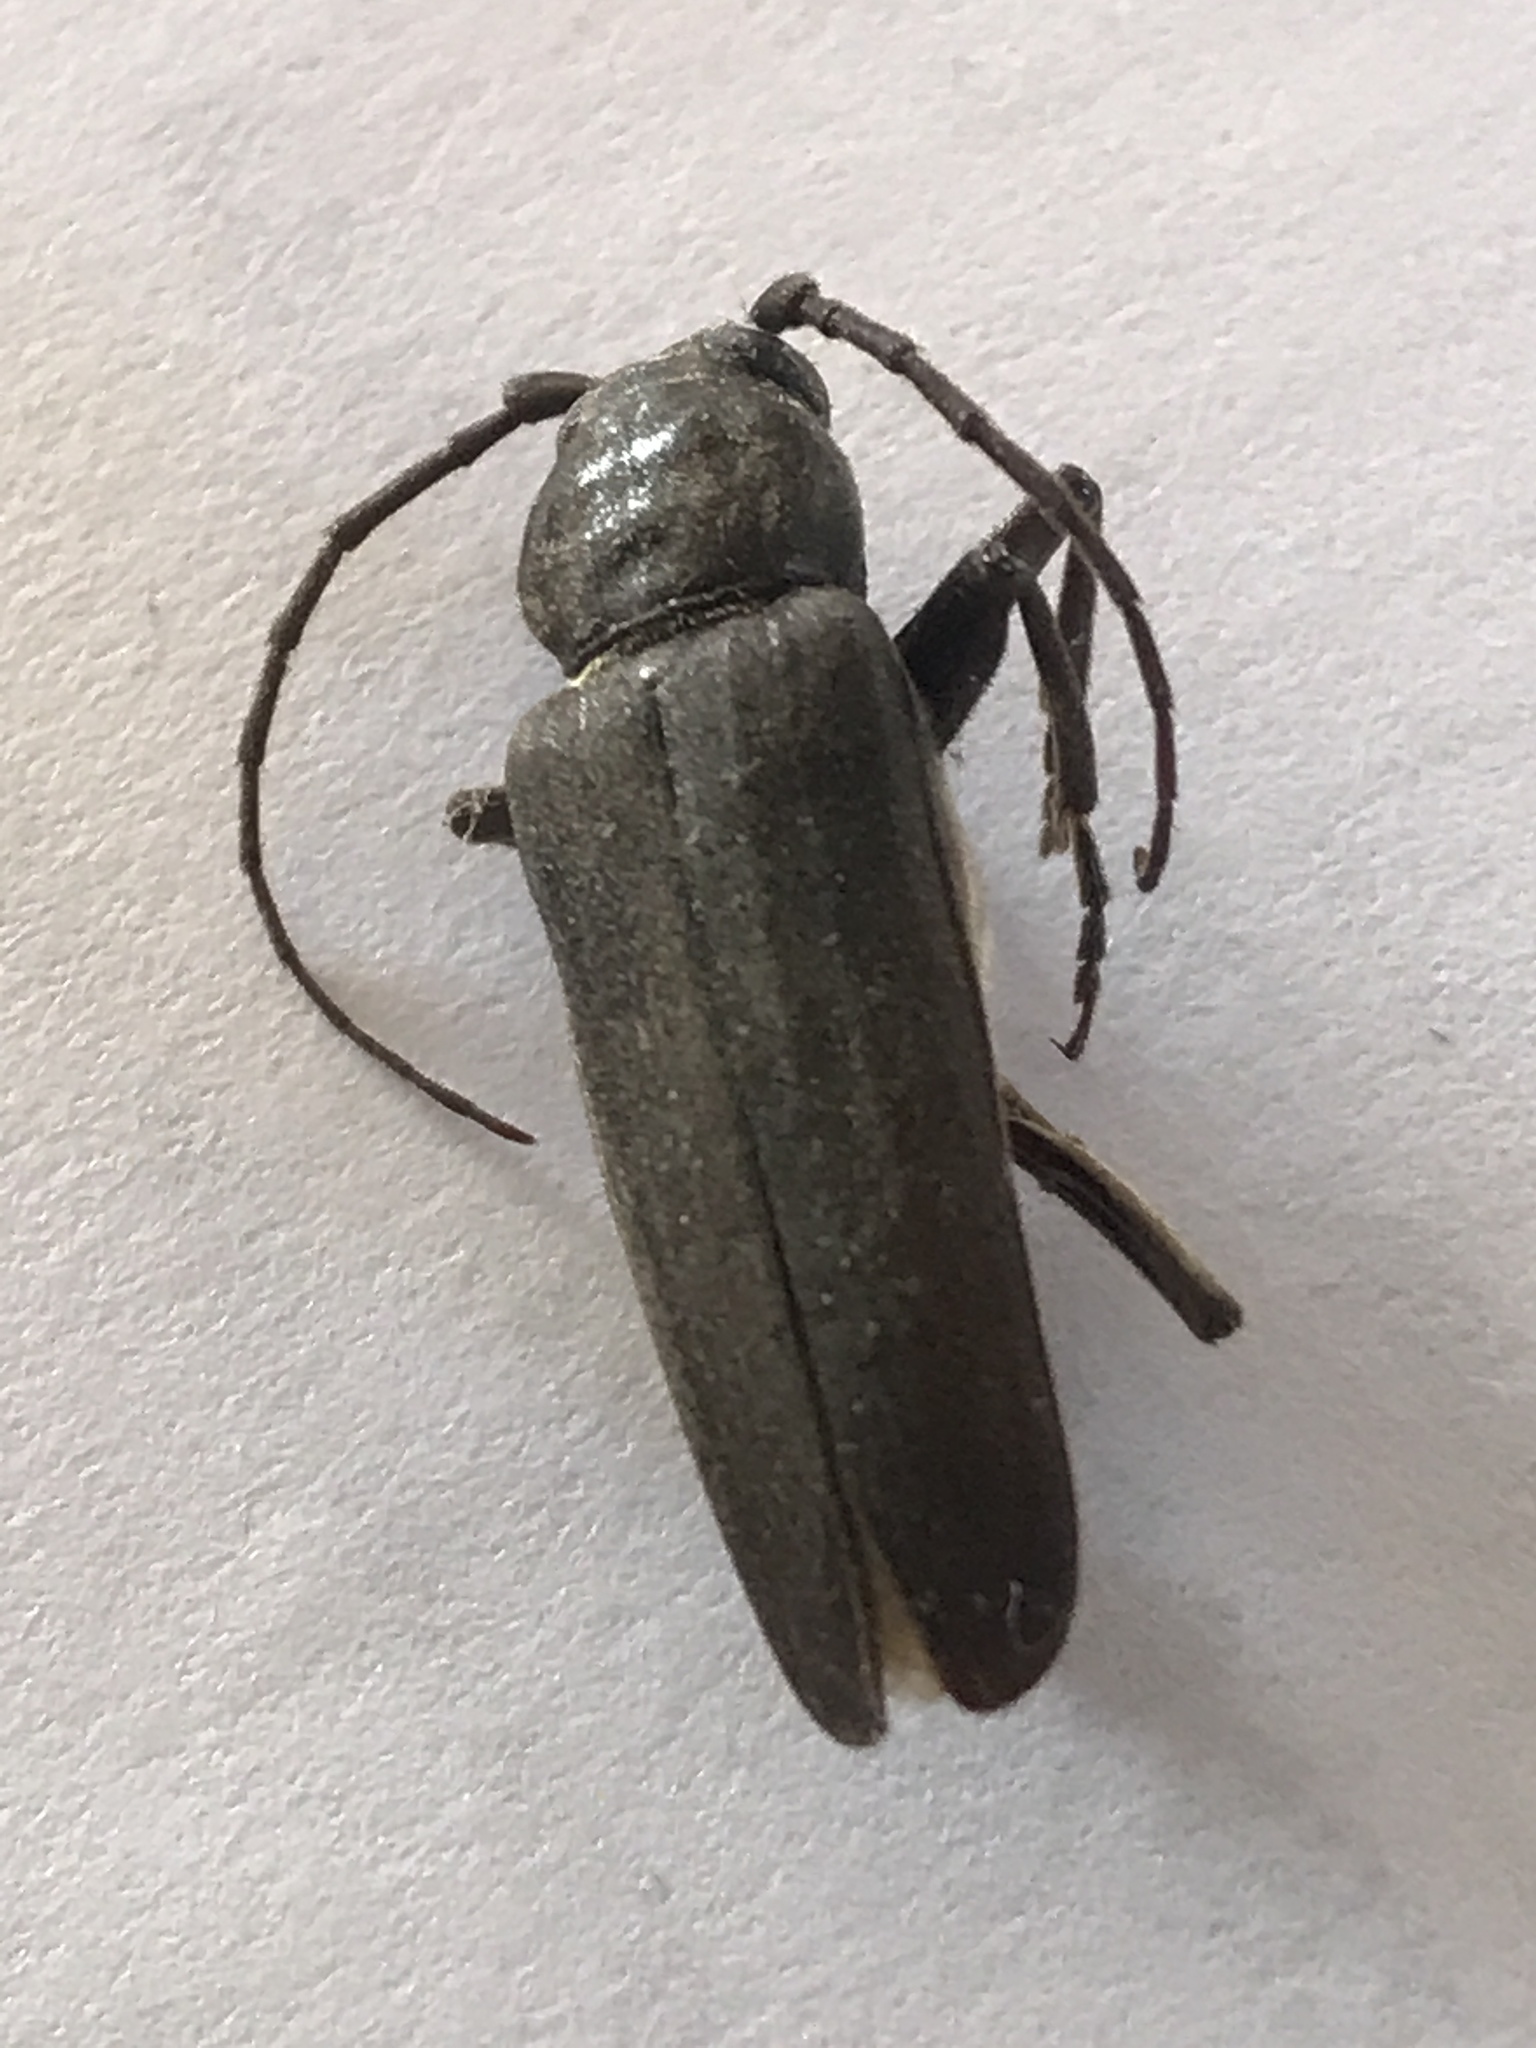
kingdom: Animalia
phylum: Arthropoda
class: Insecta
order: Coleoptera
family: Cerambycidae
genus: Arhopalus
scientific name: Arhopalus ferus
